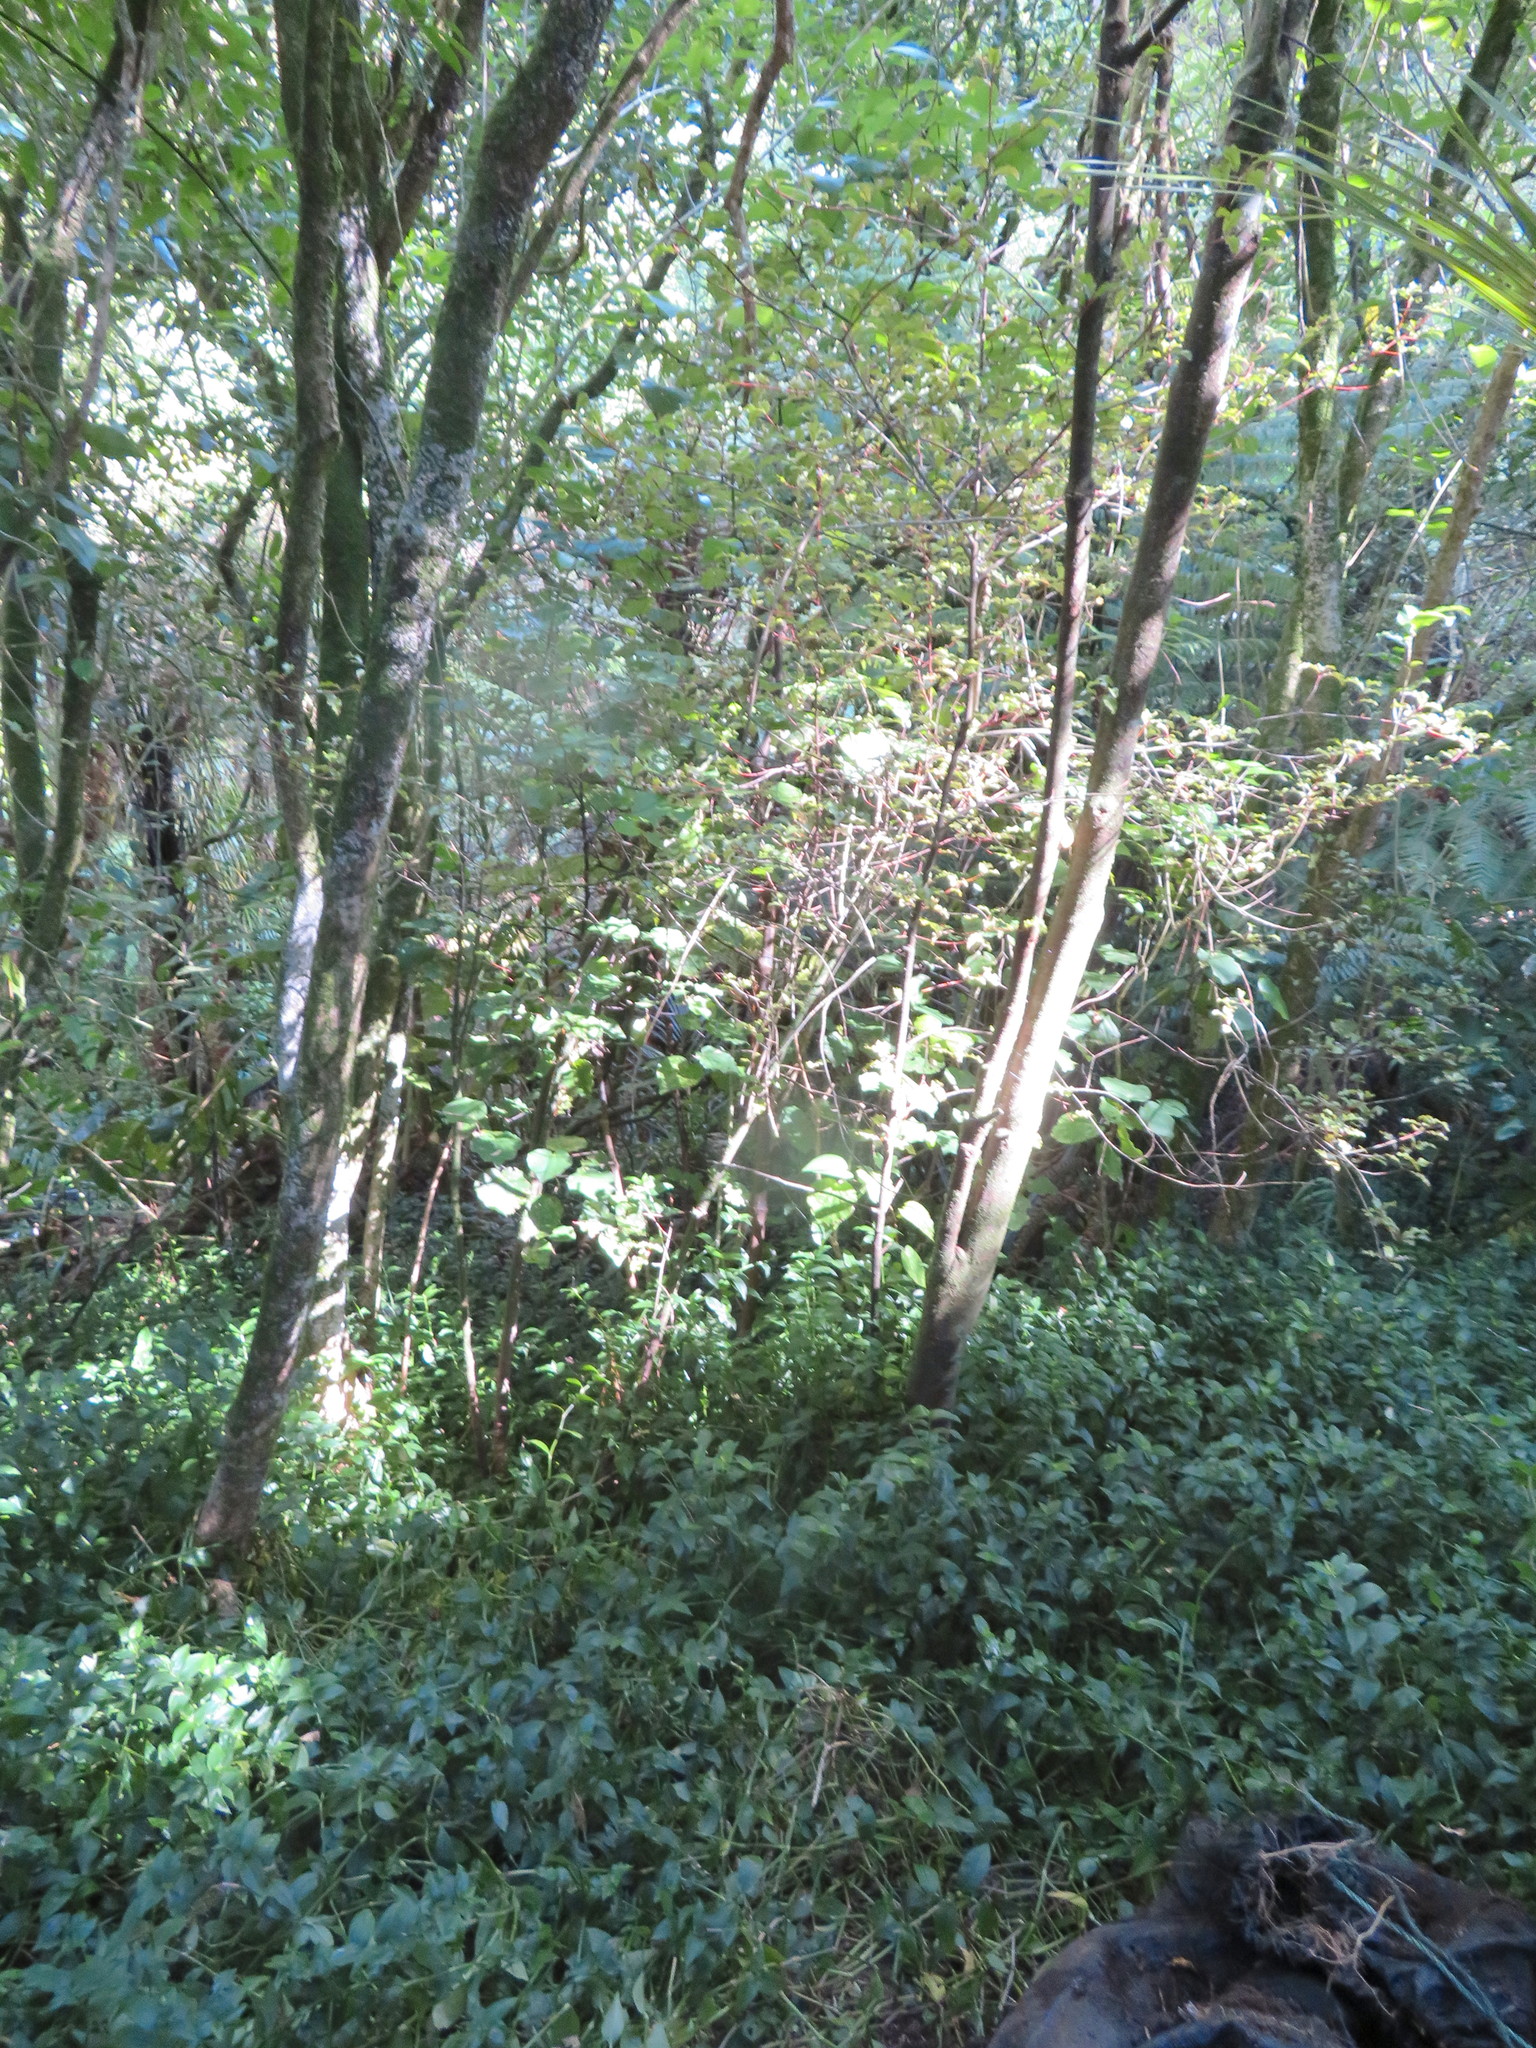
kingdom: Plantae
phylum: Tracheophyta
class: Magnoliopsida
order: Piperales
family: Piperaceae
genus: Macropiper
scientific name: Macropiper excelsum
